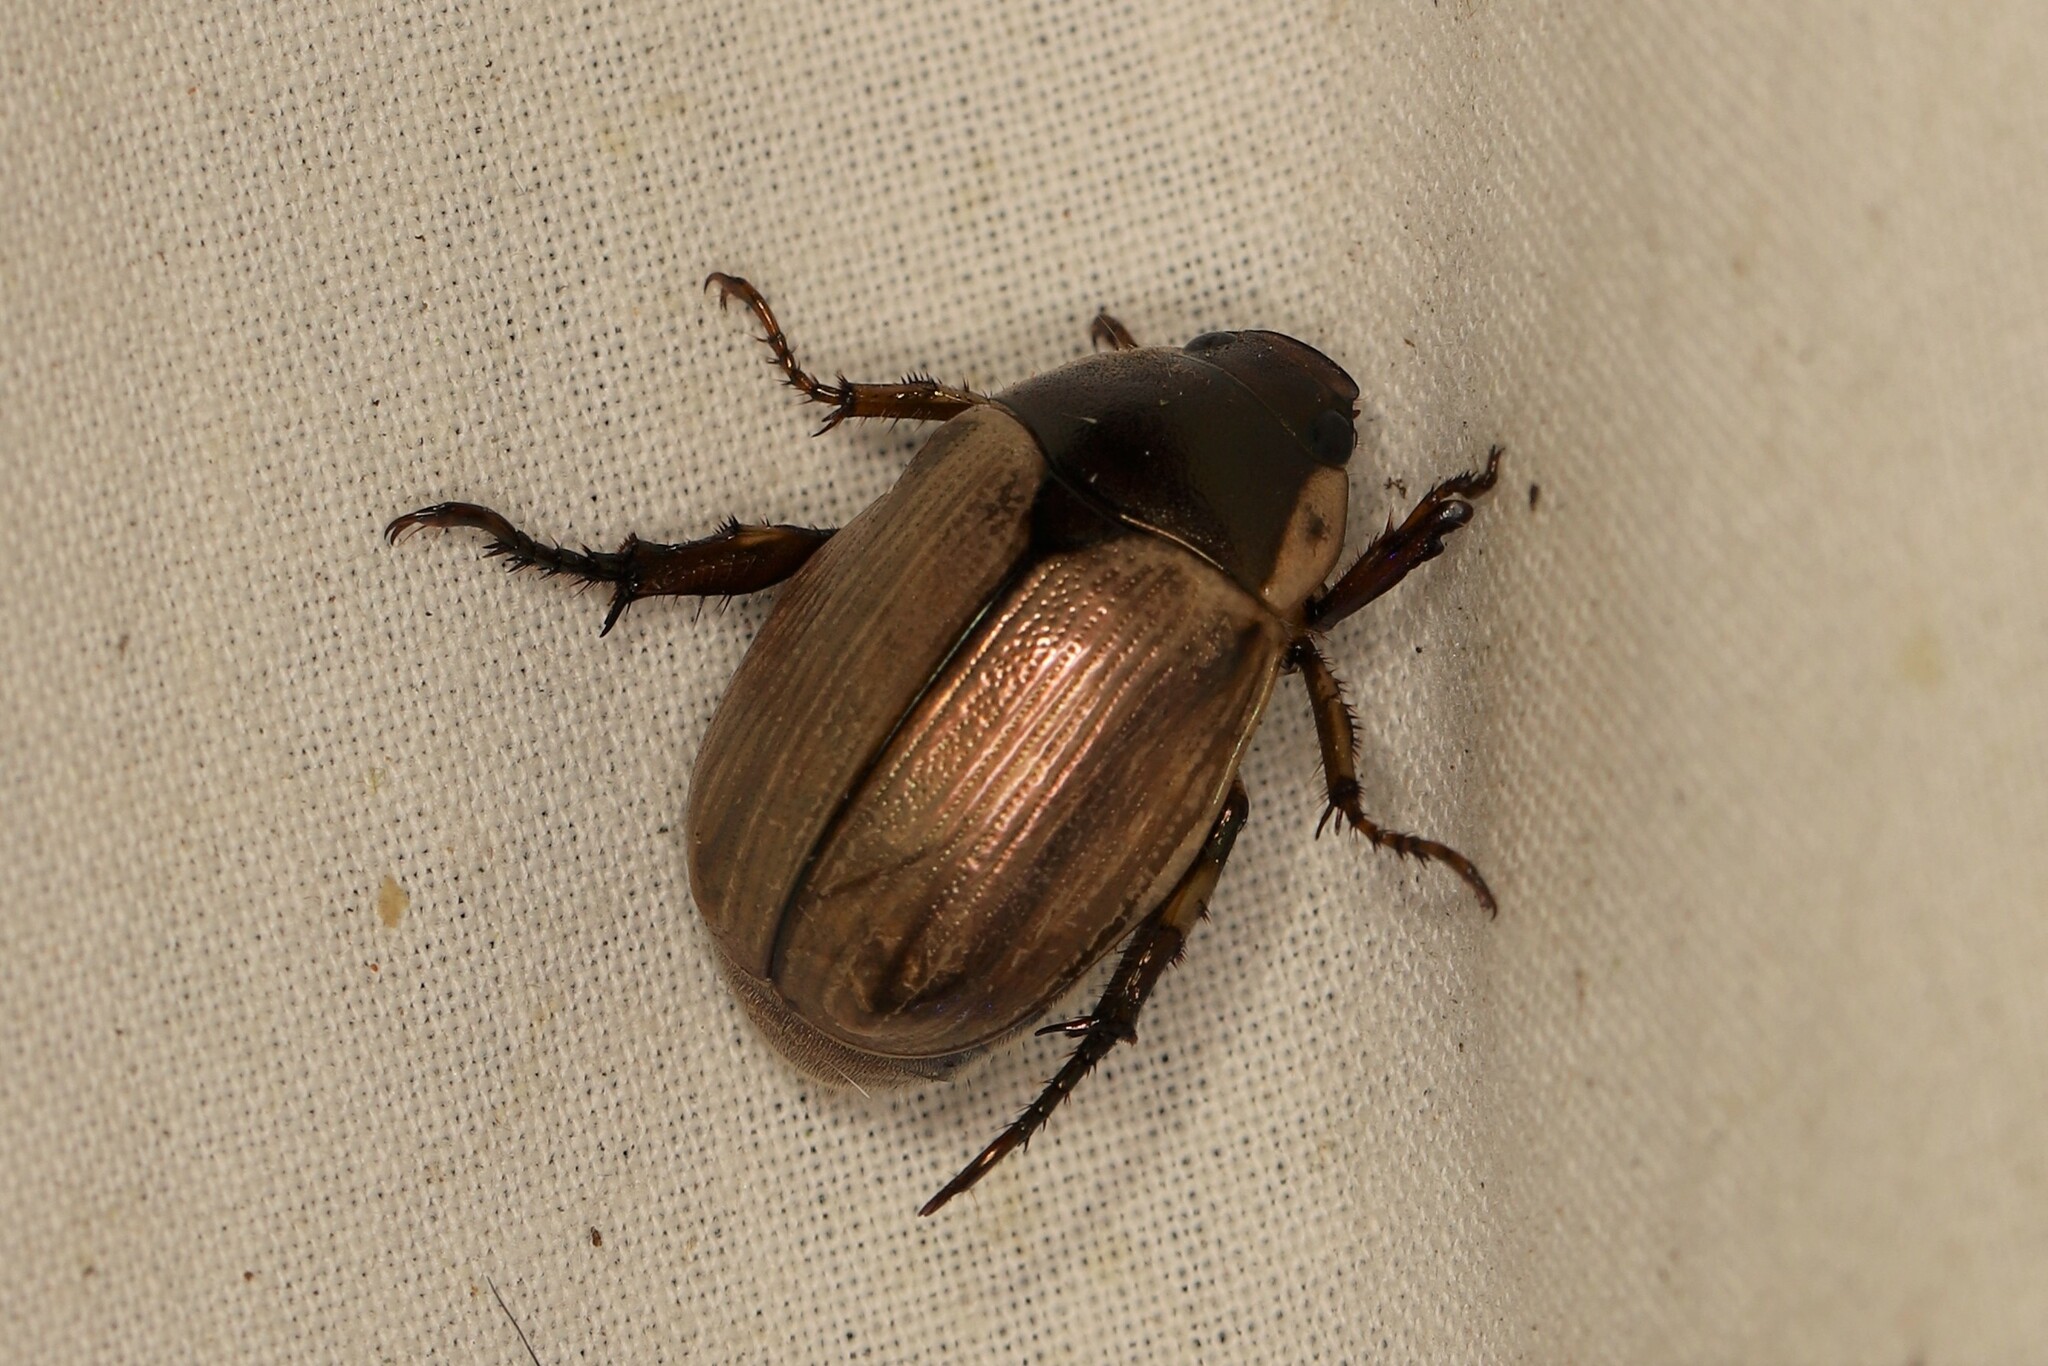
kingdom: Animalia
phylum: Arthropoda
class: Insecta
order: Coleoptera
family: Scarabaeidae
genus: Callistethus
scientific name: Callistethus marginatus
